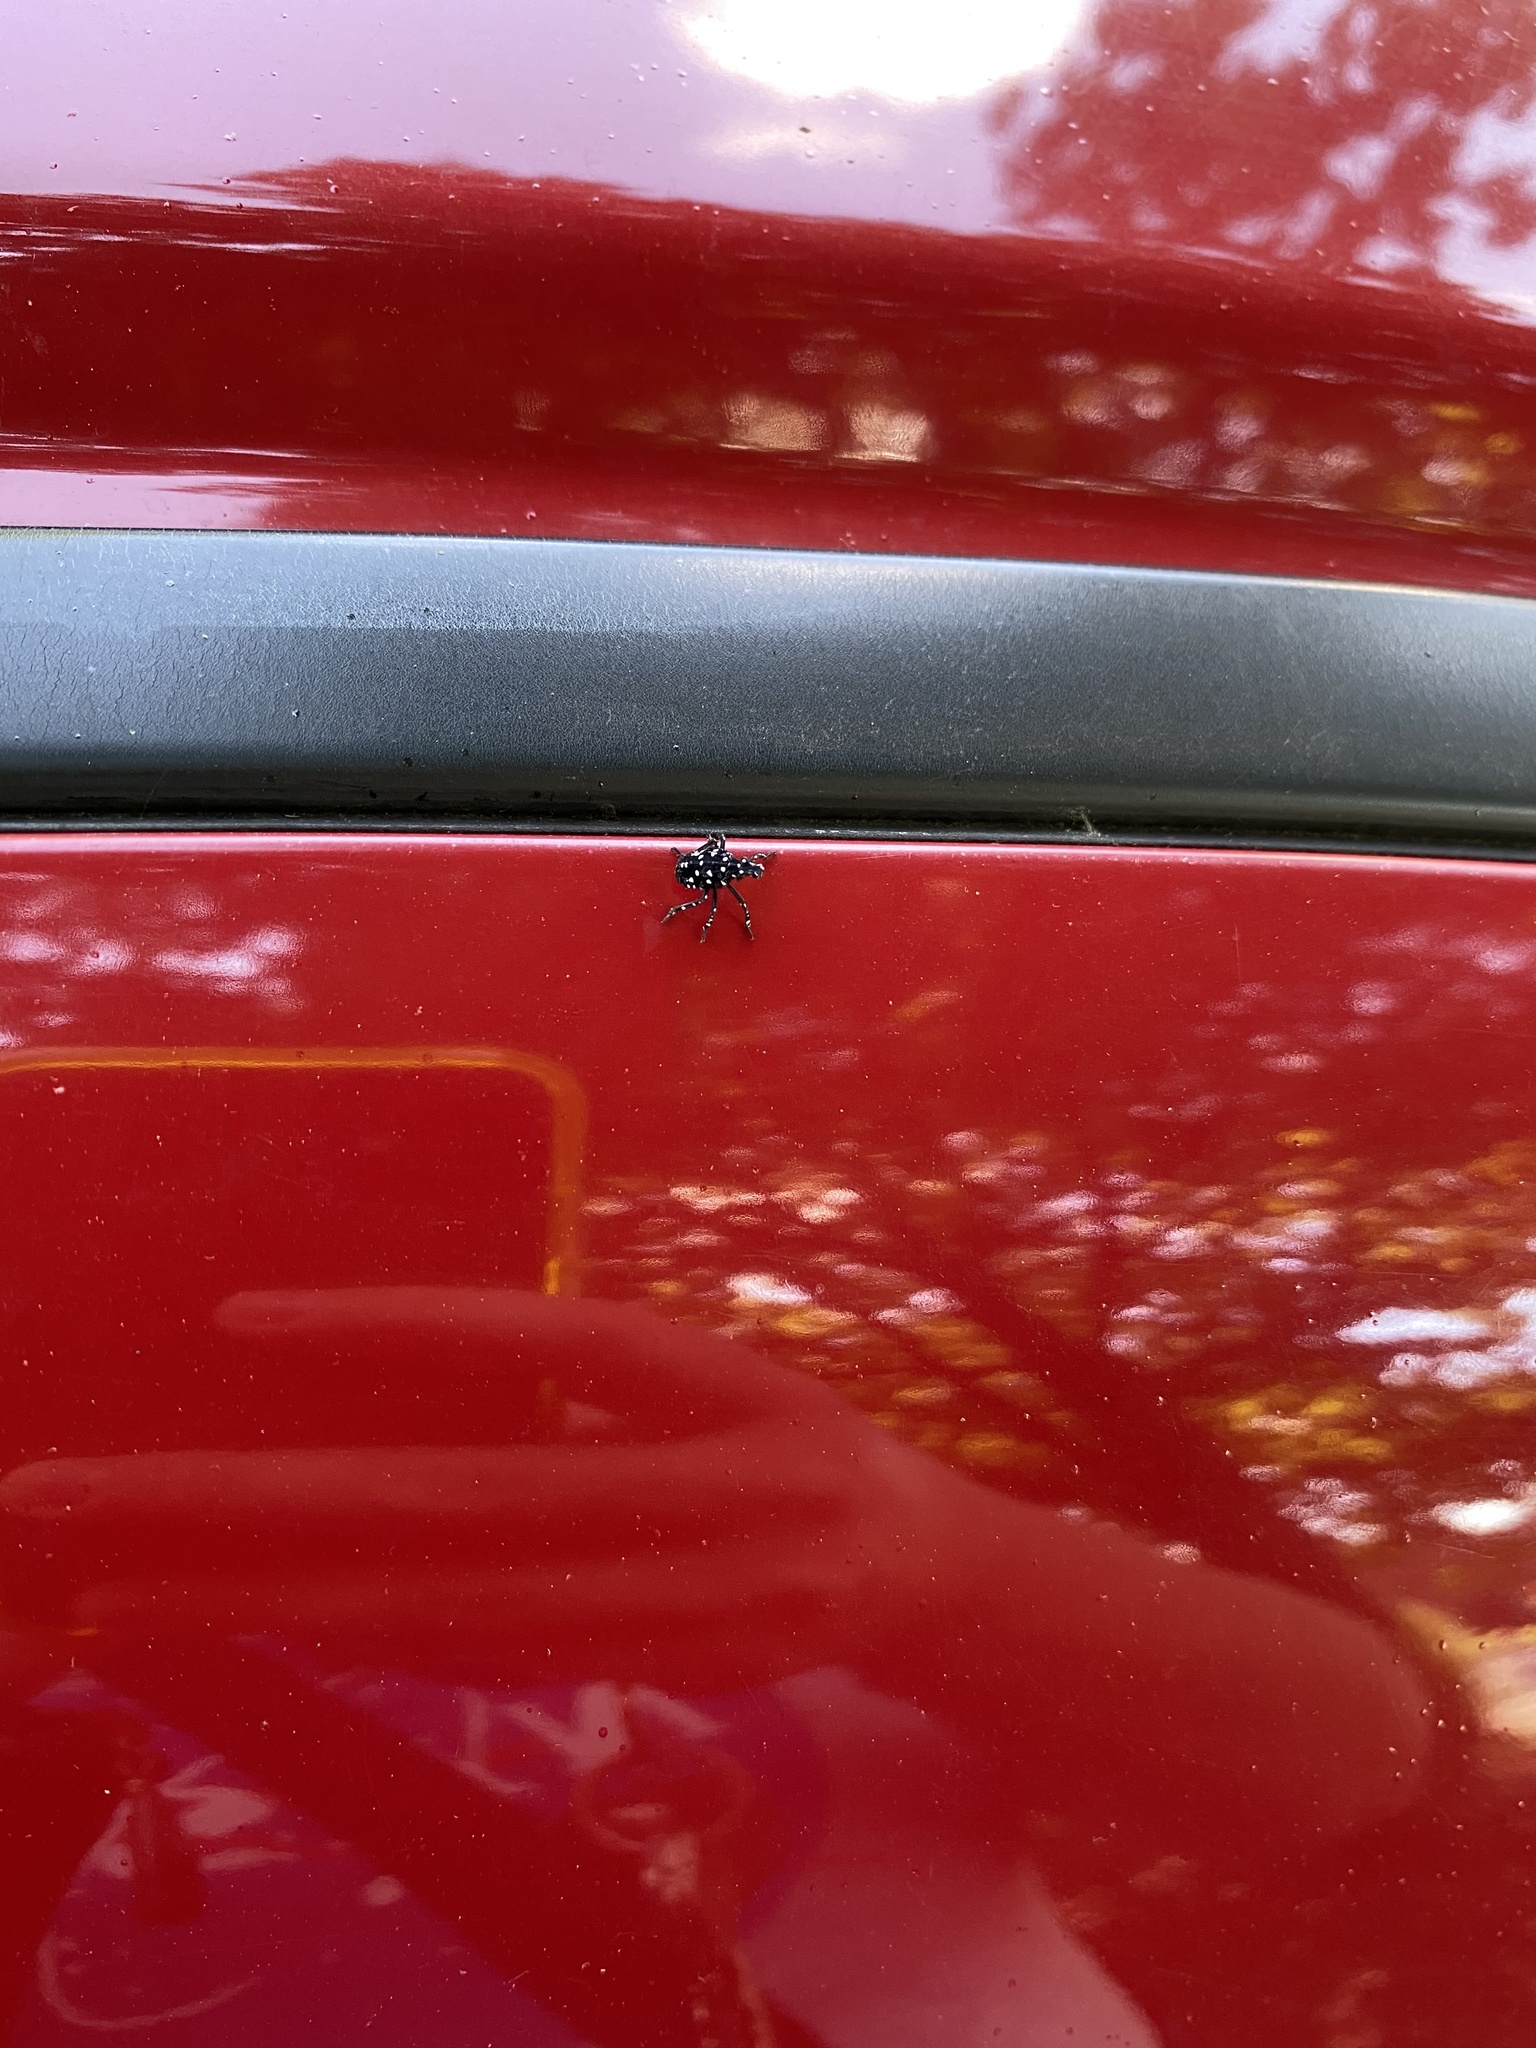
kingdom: Animalia
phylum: Arthropoda
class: Insecta
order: Hemiptera
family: Fulgoridae
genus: Lycorma
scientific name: Lycorma delicatula
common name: Spotted lanternfly
